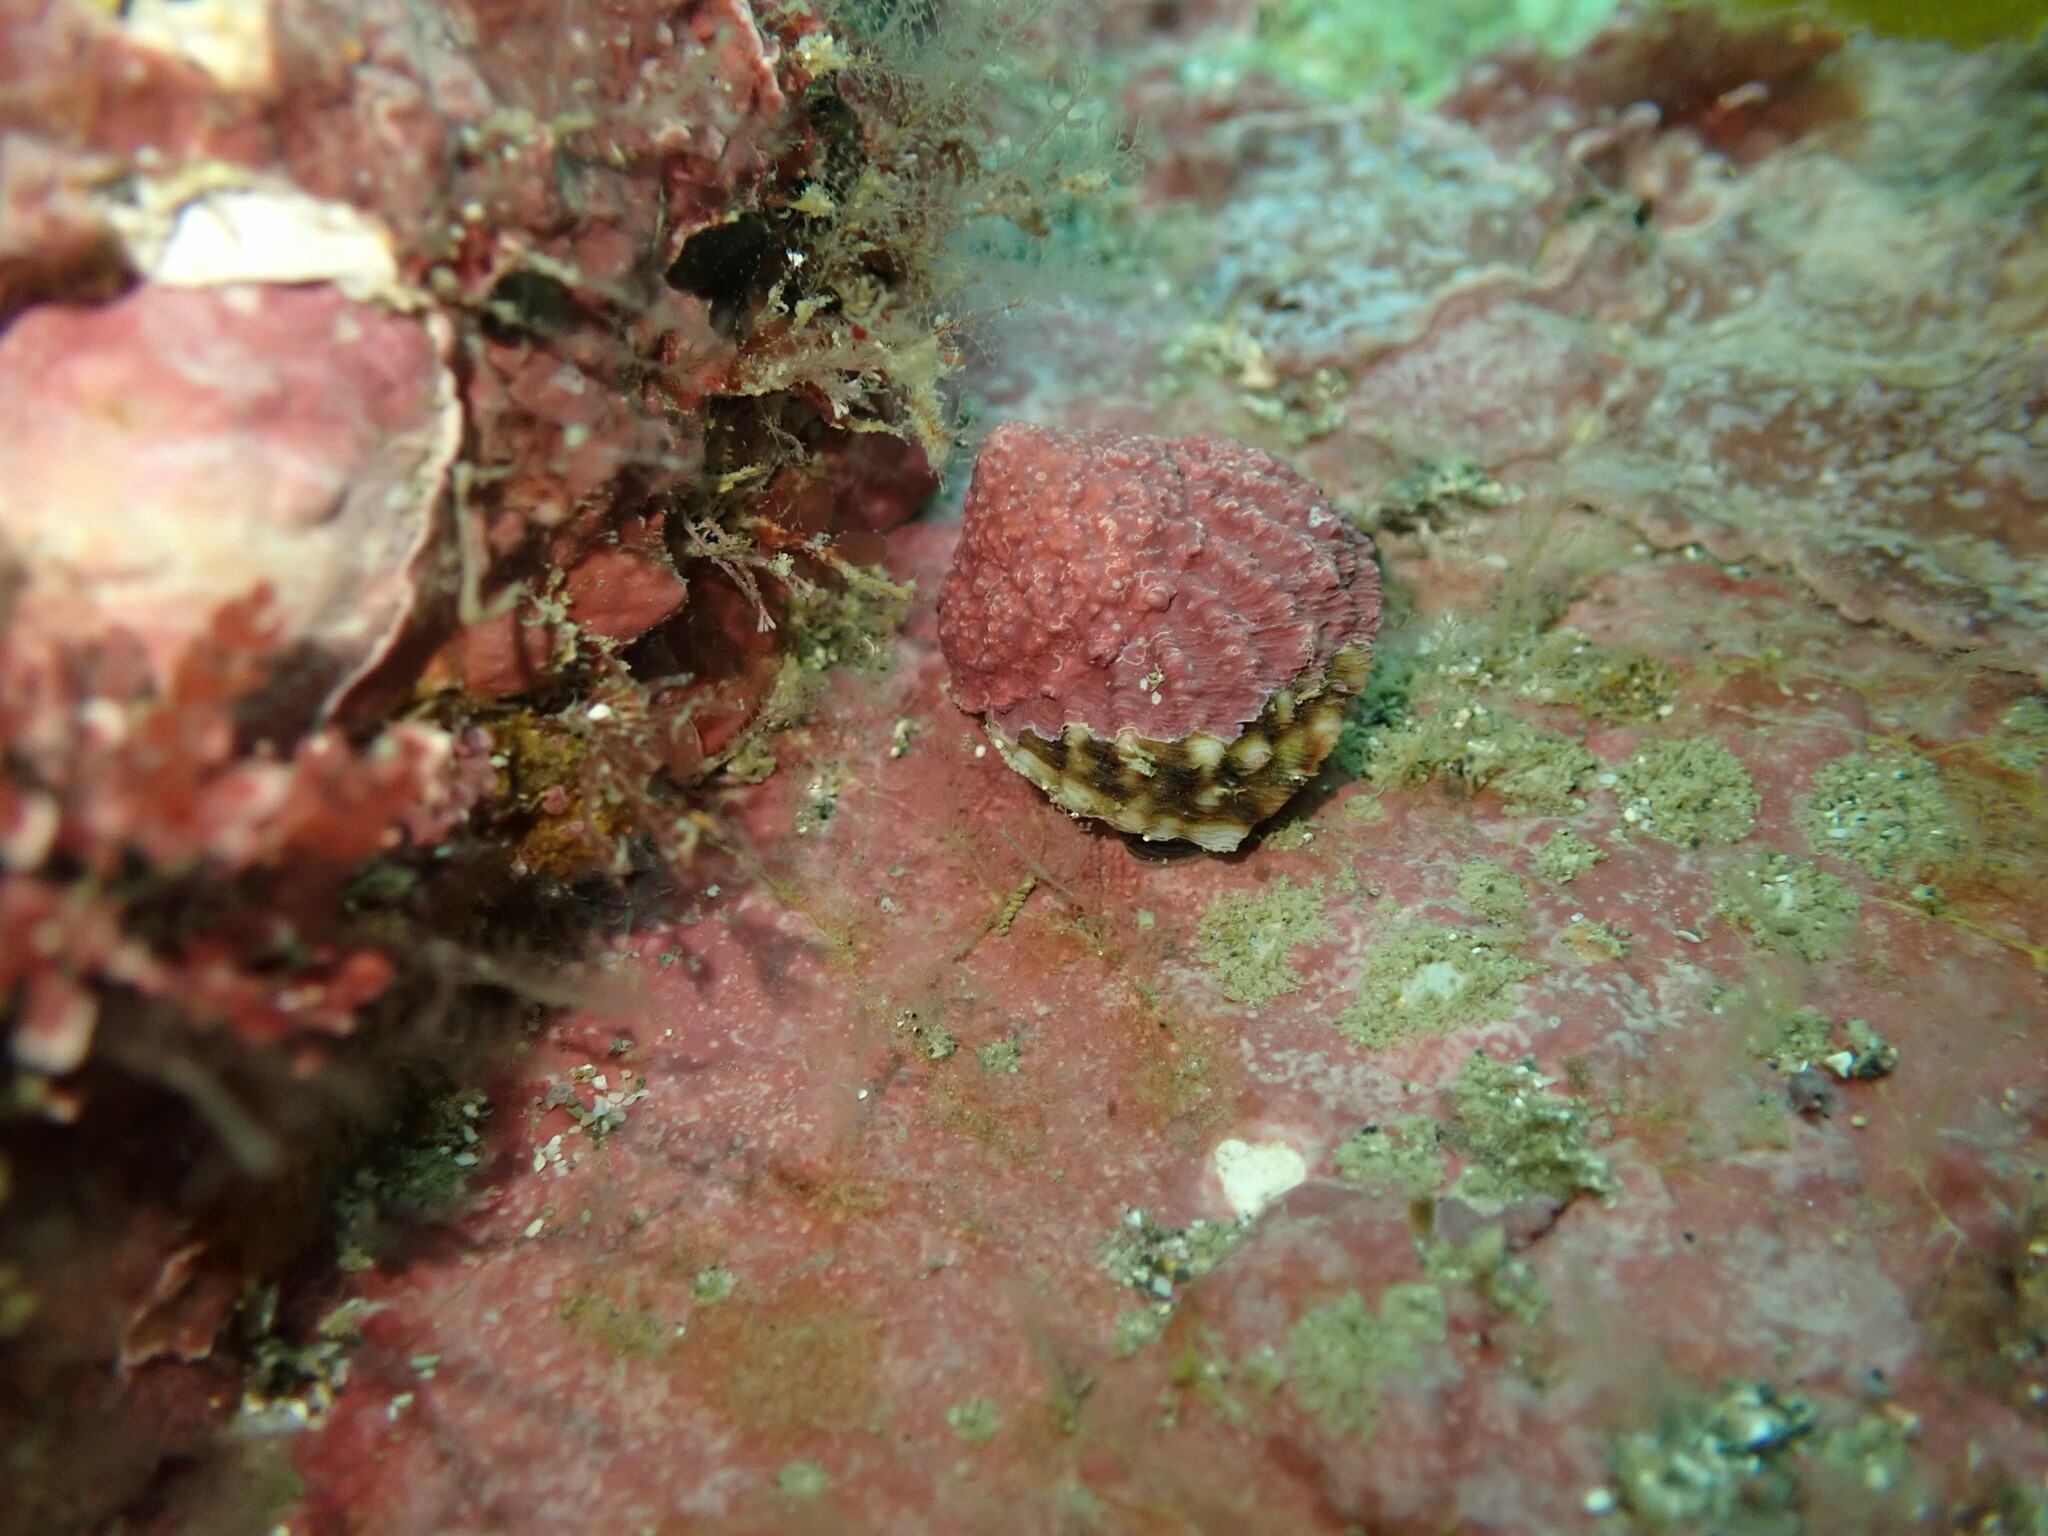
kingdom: Animalia
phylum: Mollusca
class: Gastropoda
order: Trochida
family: Turbinidae
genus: Cookia
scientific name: Cookia sulcata
